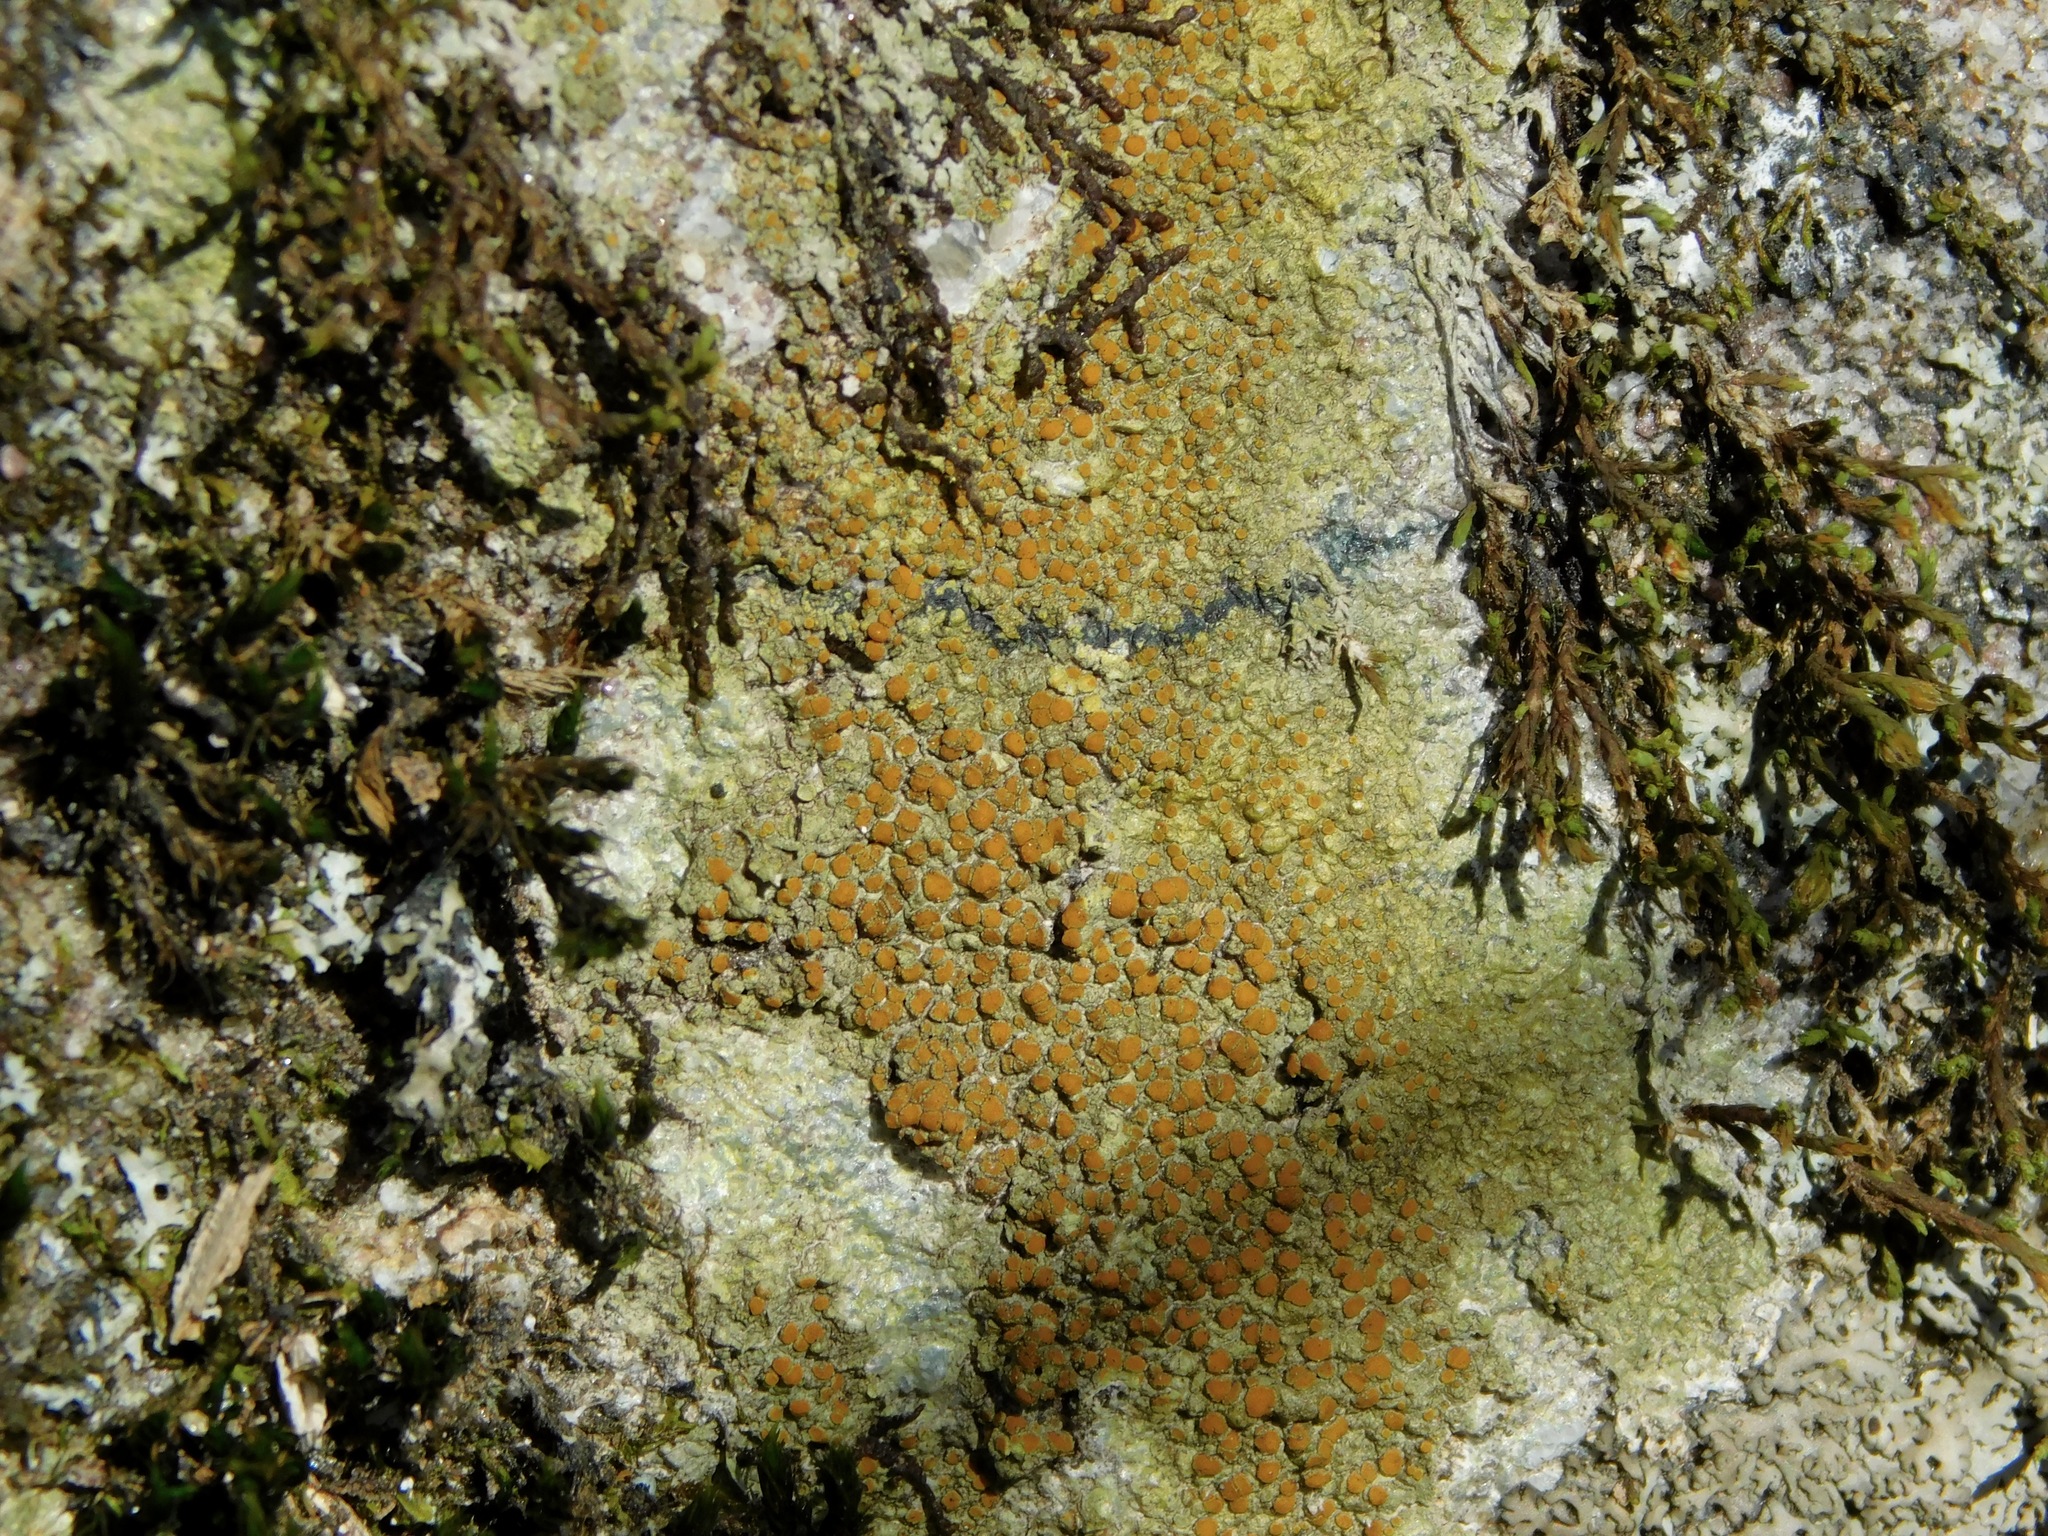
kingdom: Fungi
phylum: Ascomycota
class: Lecanoromycetes
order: Teloschistales
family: Teloschistaceae
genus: Gyalolechia
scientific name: Gyalolechia flavovirescens
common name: Sulphur firedot
